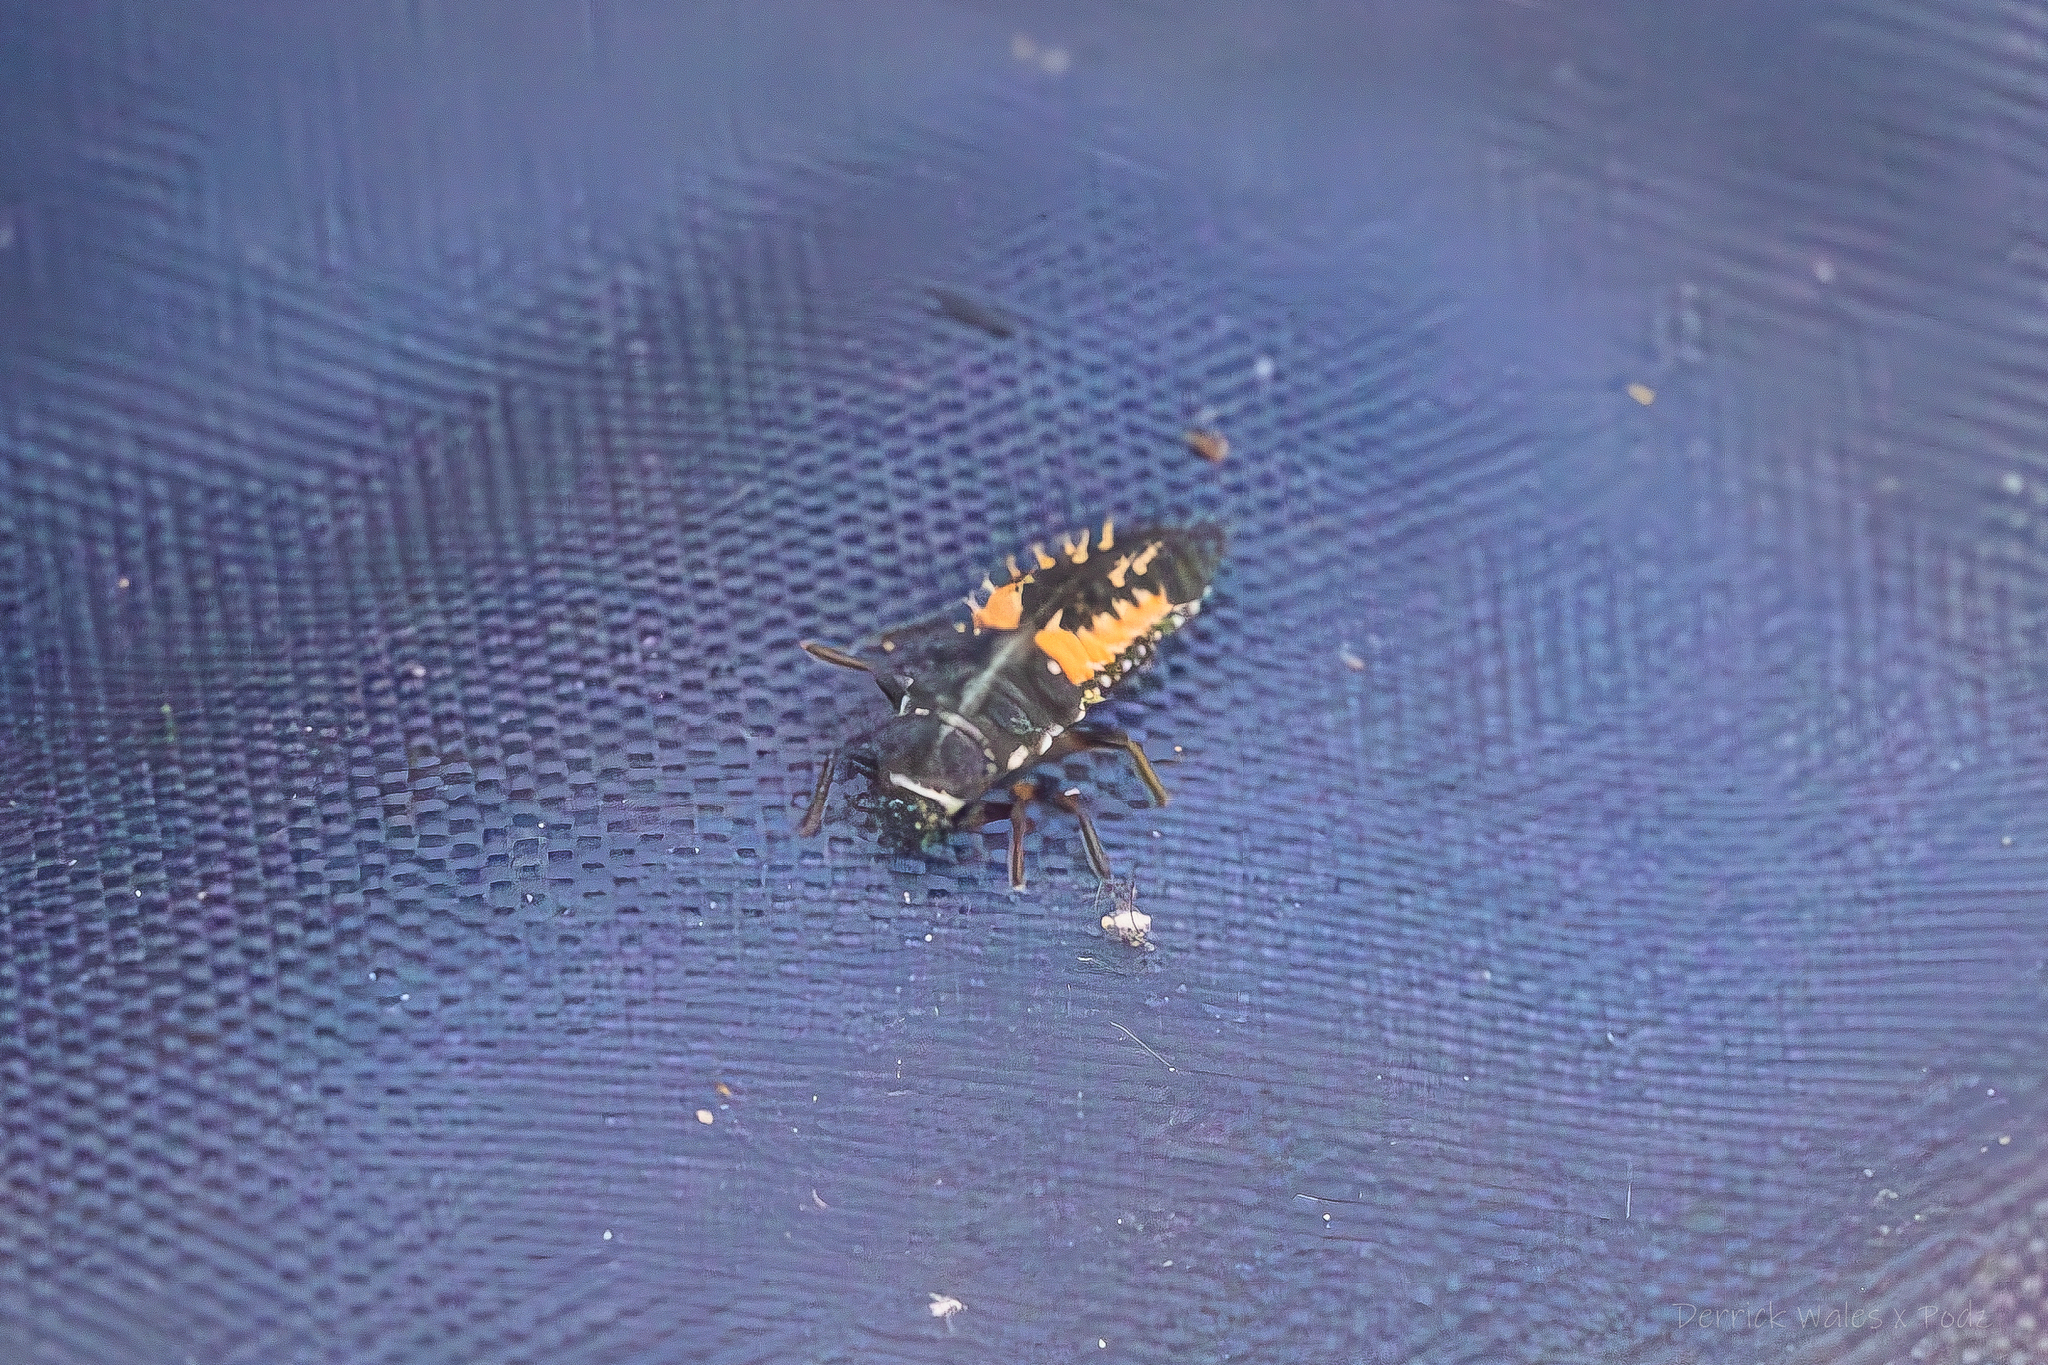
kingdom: Animalia
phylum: Arthropoda
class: Insecta
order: Coleoptera
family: Coccinellidae
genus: Harmonia
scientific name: Harmonia axyridis
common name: Harlequin ladybird
